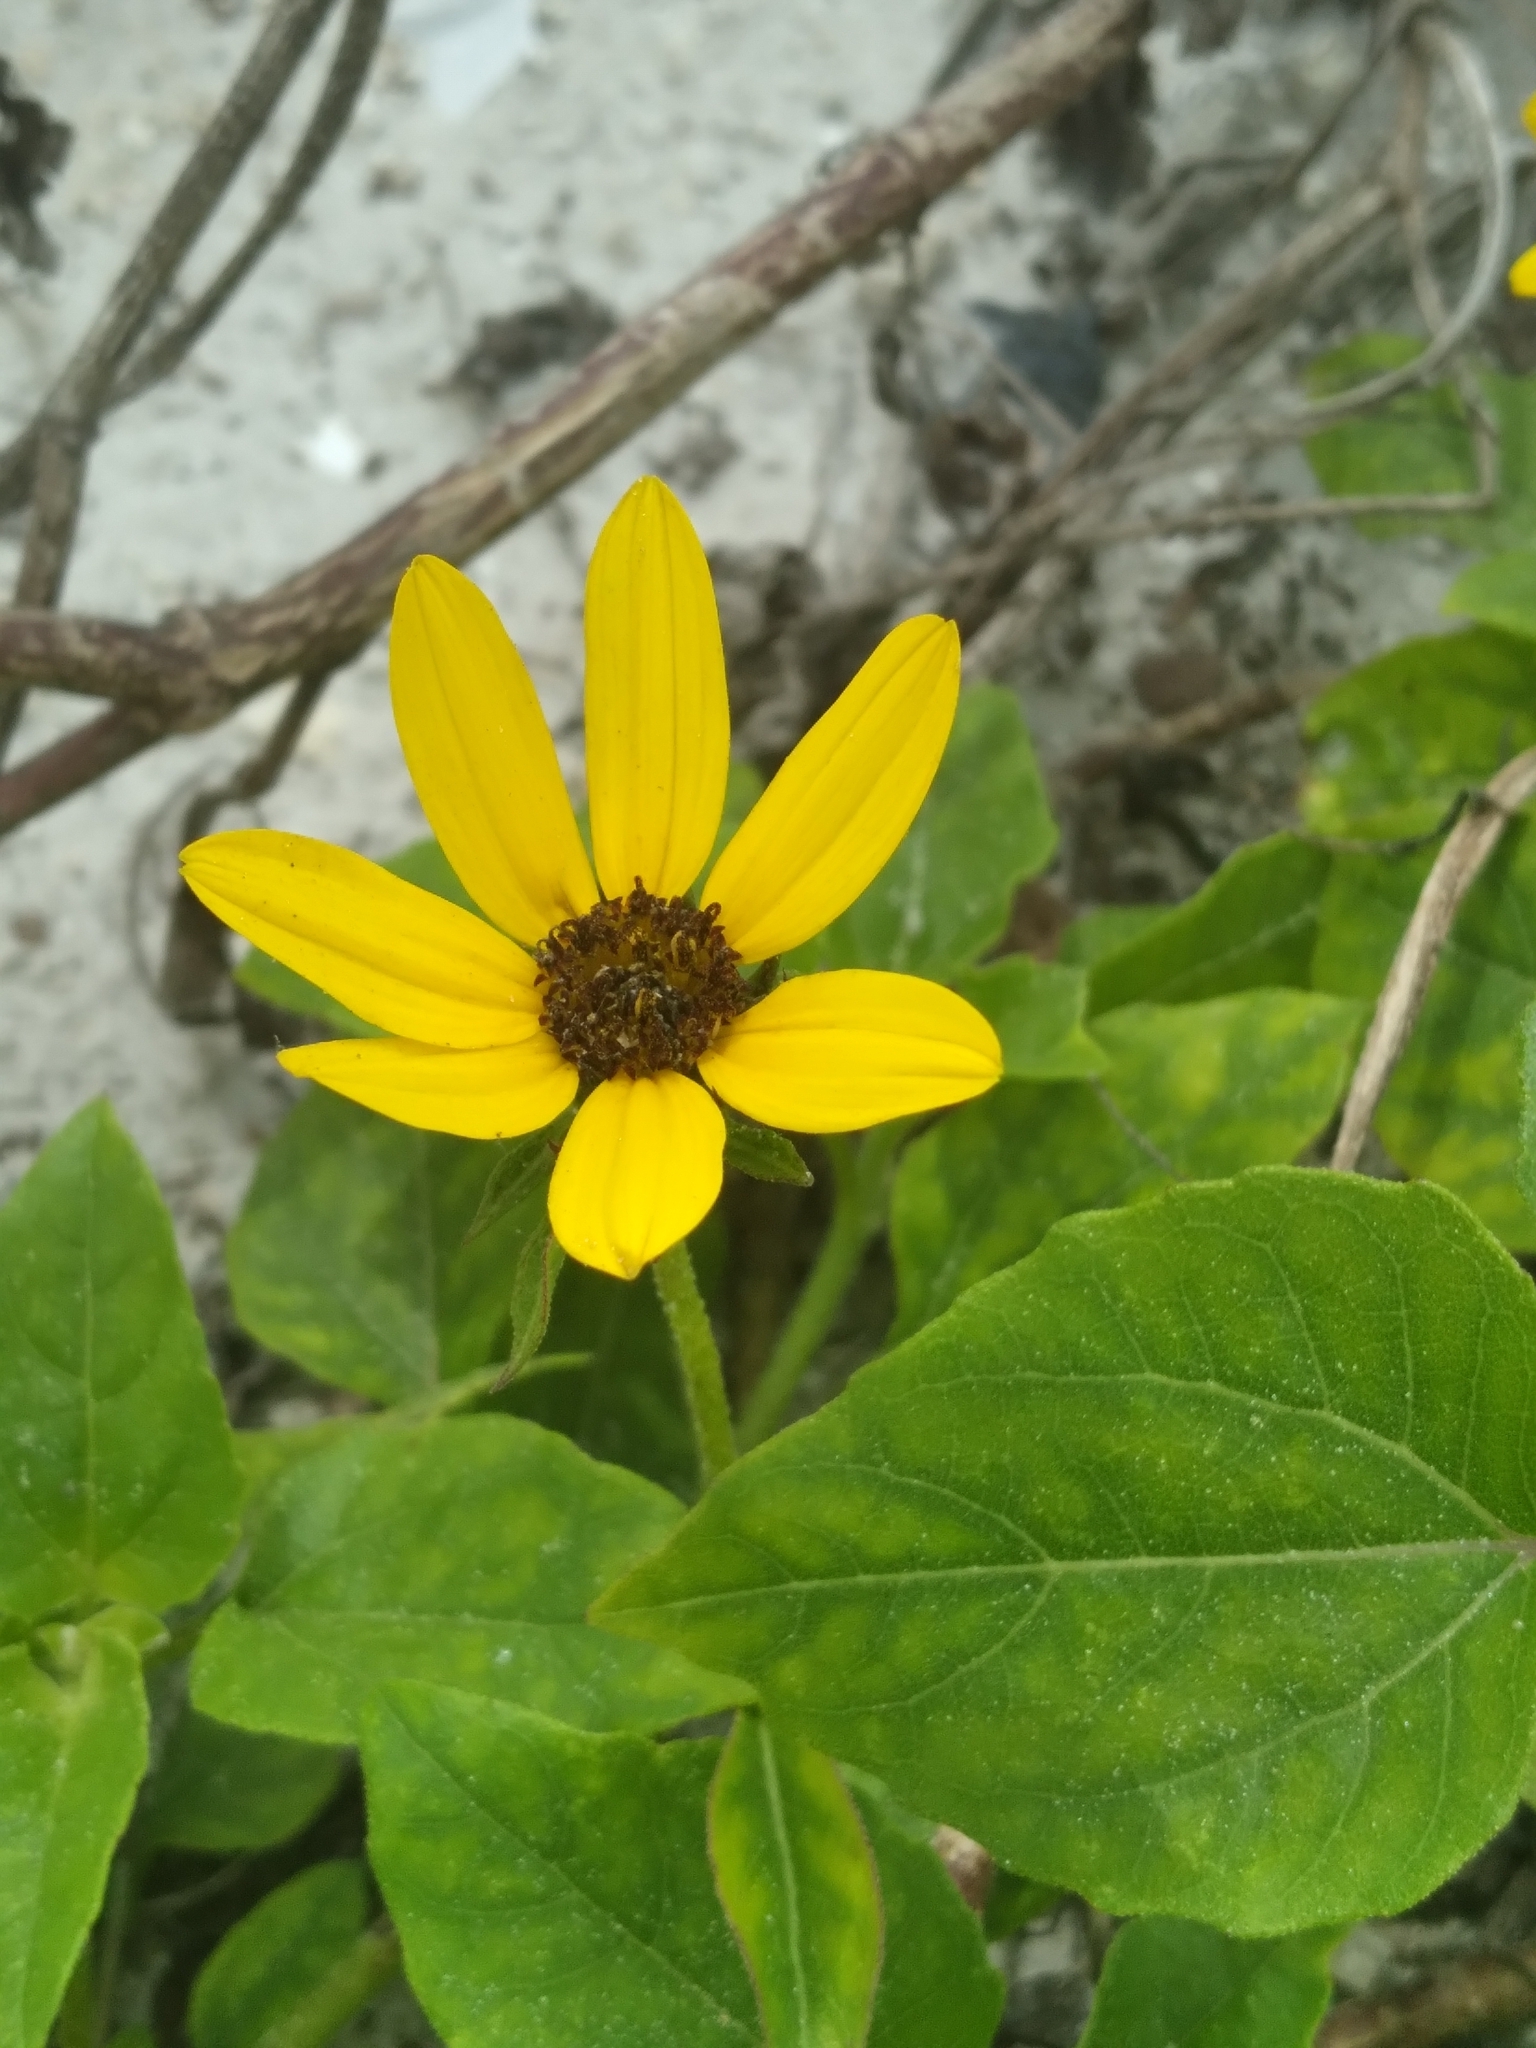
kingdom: Plantae
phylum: Tracheophyta
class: Magnoliopsida
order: Asterales
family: Asteraceae
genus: Helianthus
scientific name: Helianthus debilis
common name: Weak sunflower
